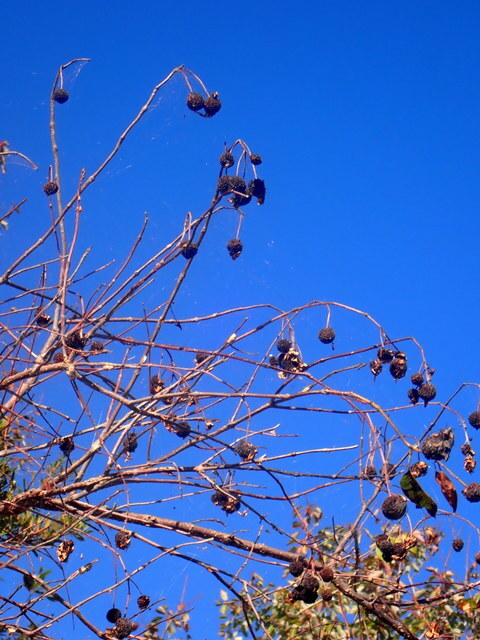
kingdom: Plantae
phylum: Tracheophyta
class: Magnoliopsida
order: Gentianales
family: Rubiaceae
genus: Cephalanthus
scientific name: Cephalanthus occidentalis
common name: Button-willow
